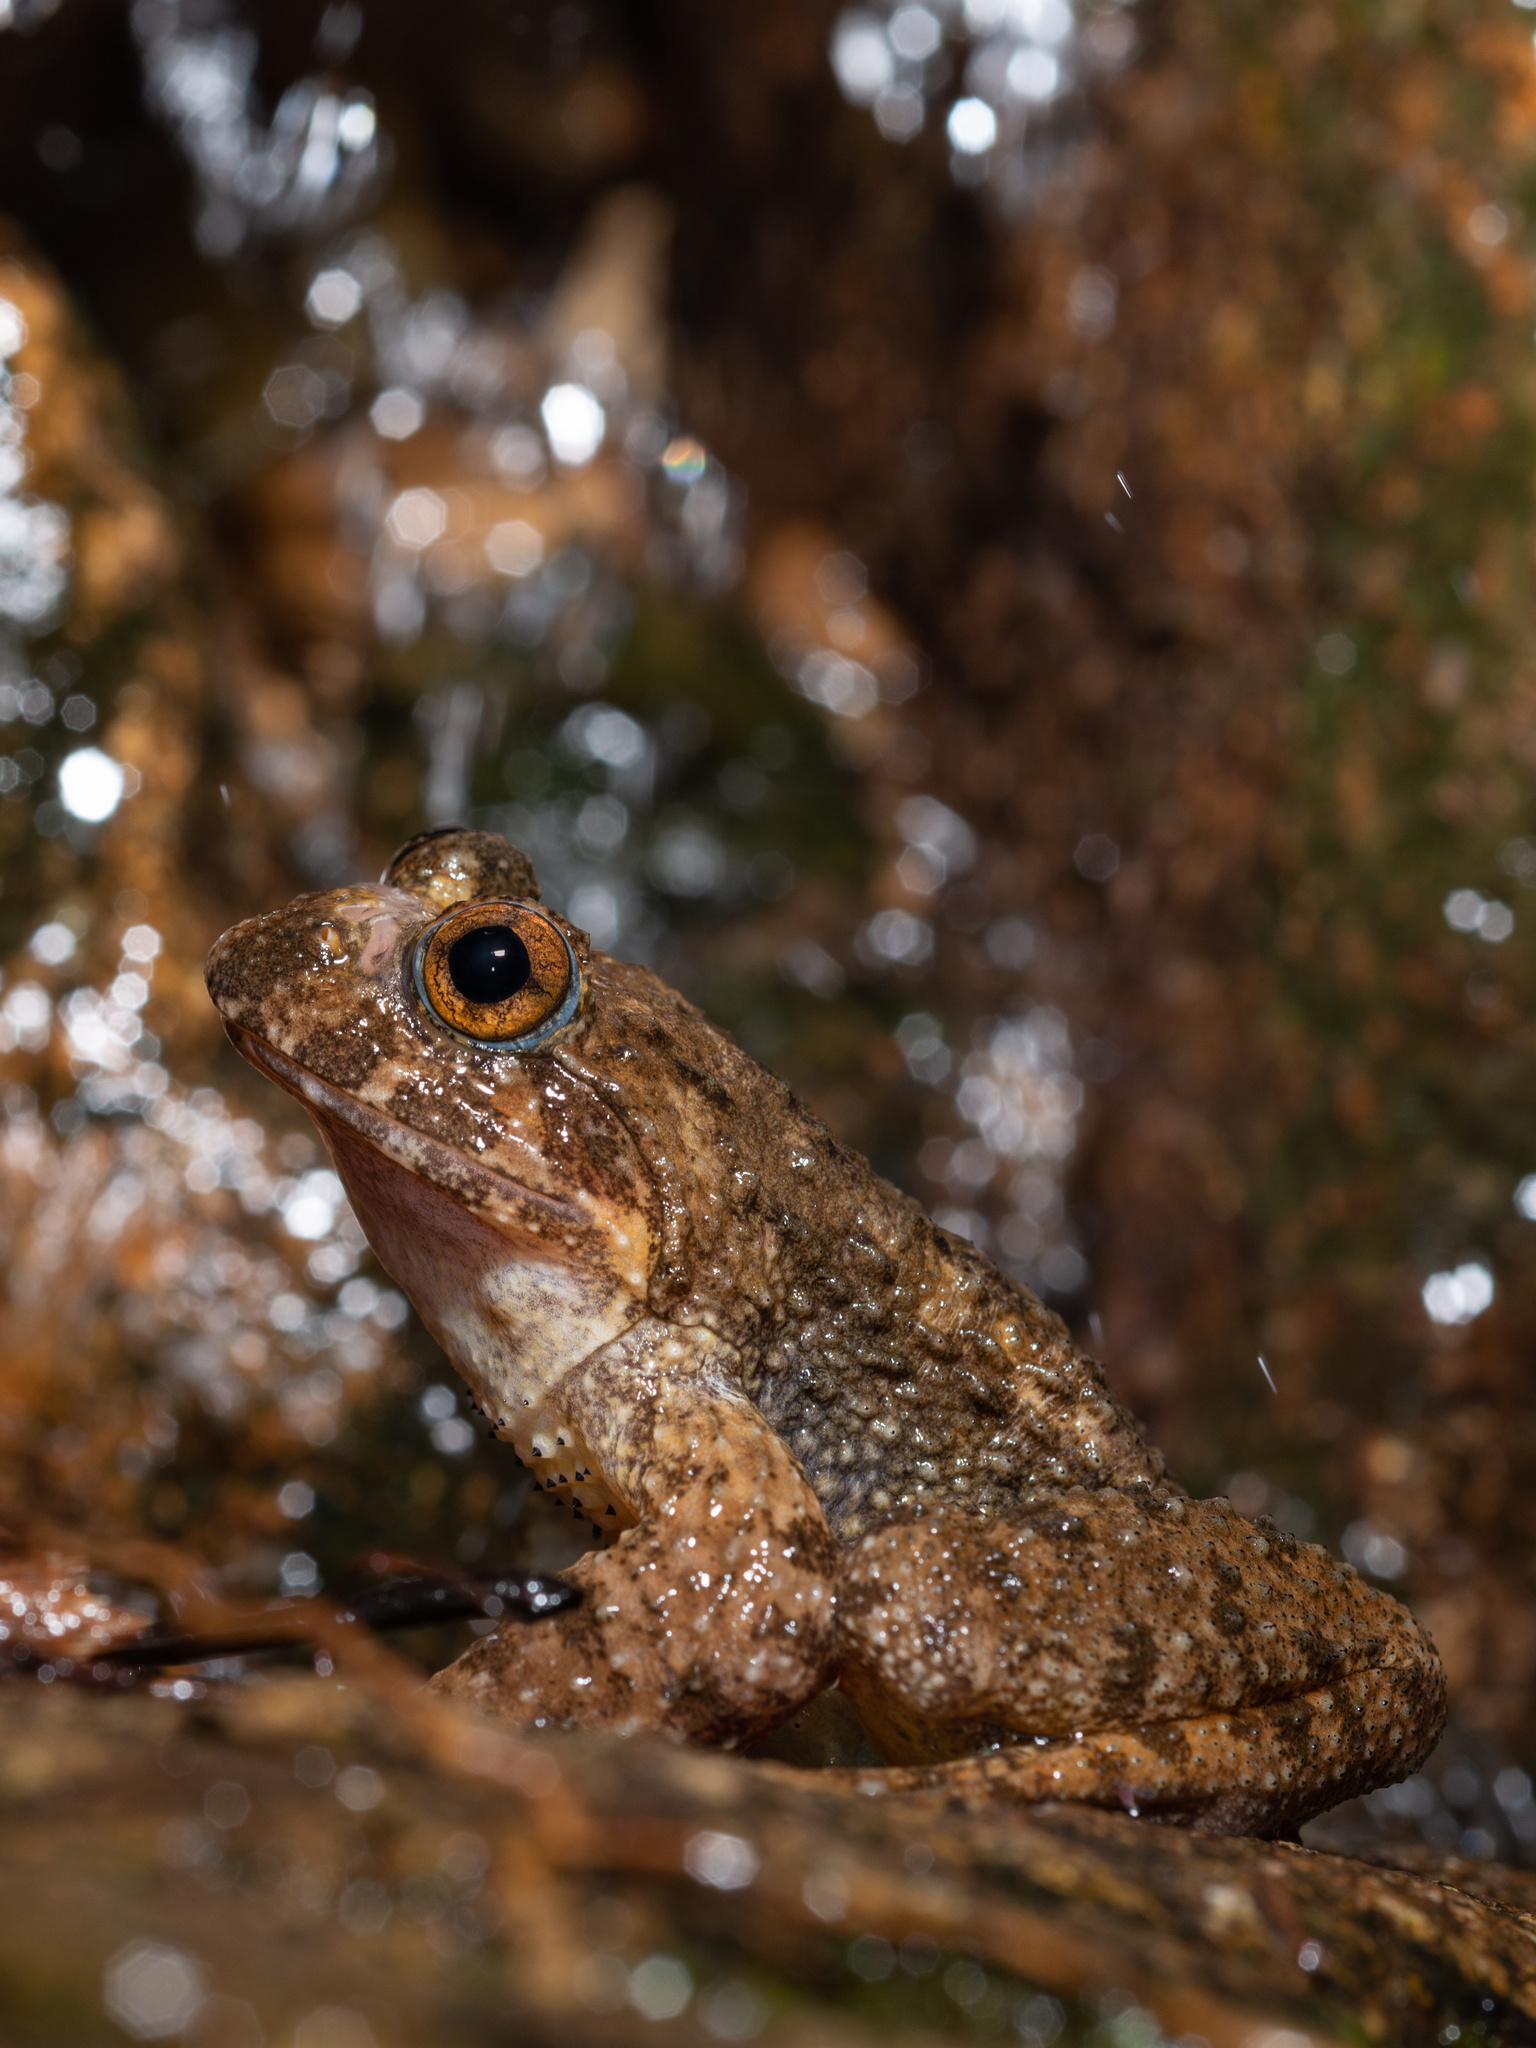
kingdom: Animalia
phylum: Chordata
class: Amphibia
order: Anura
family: Dicroglossidae
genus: Quasipaa
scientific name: Quasipaa exilispinosa
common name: Hong kong paa frog
